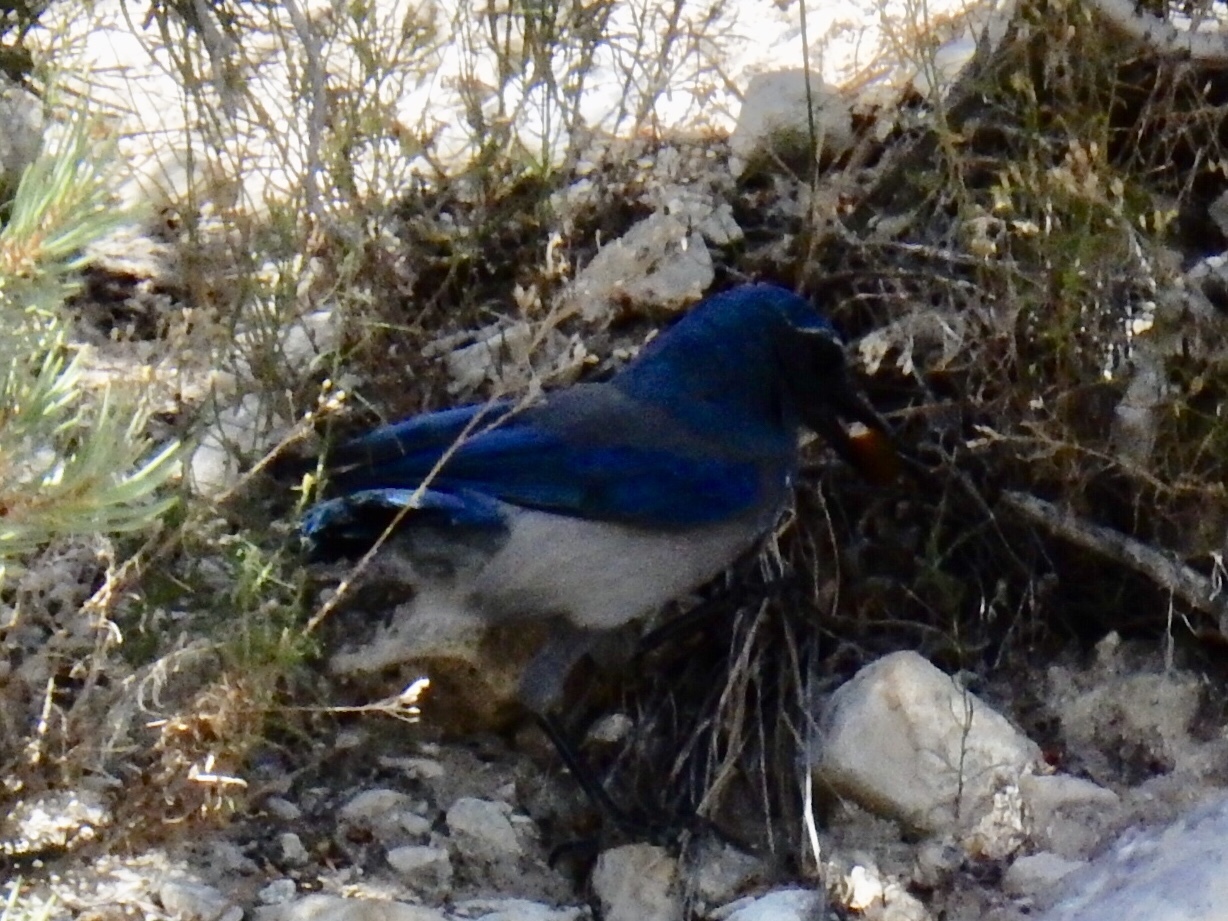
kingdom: Animalia
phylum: Chordata
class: Aves
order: Passeriformes
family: Corvidae
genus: Aphelocoma
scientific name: Aphelocoma woodhouseii
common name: Woodhouse's scrub-jay
